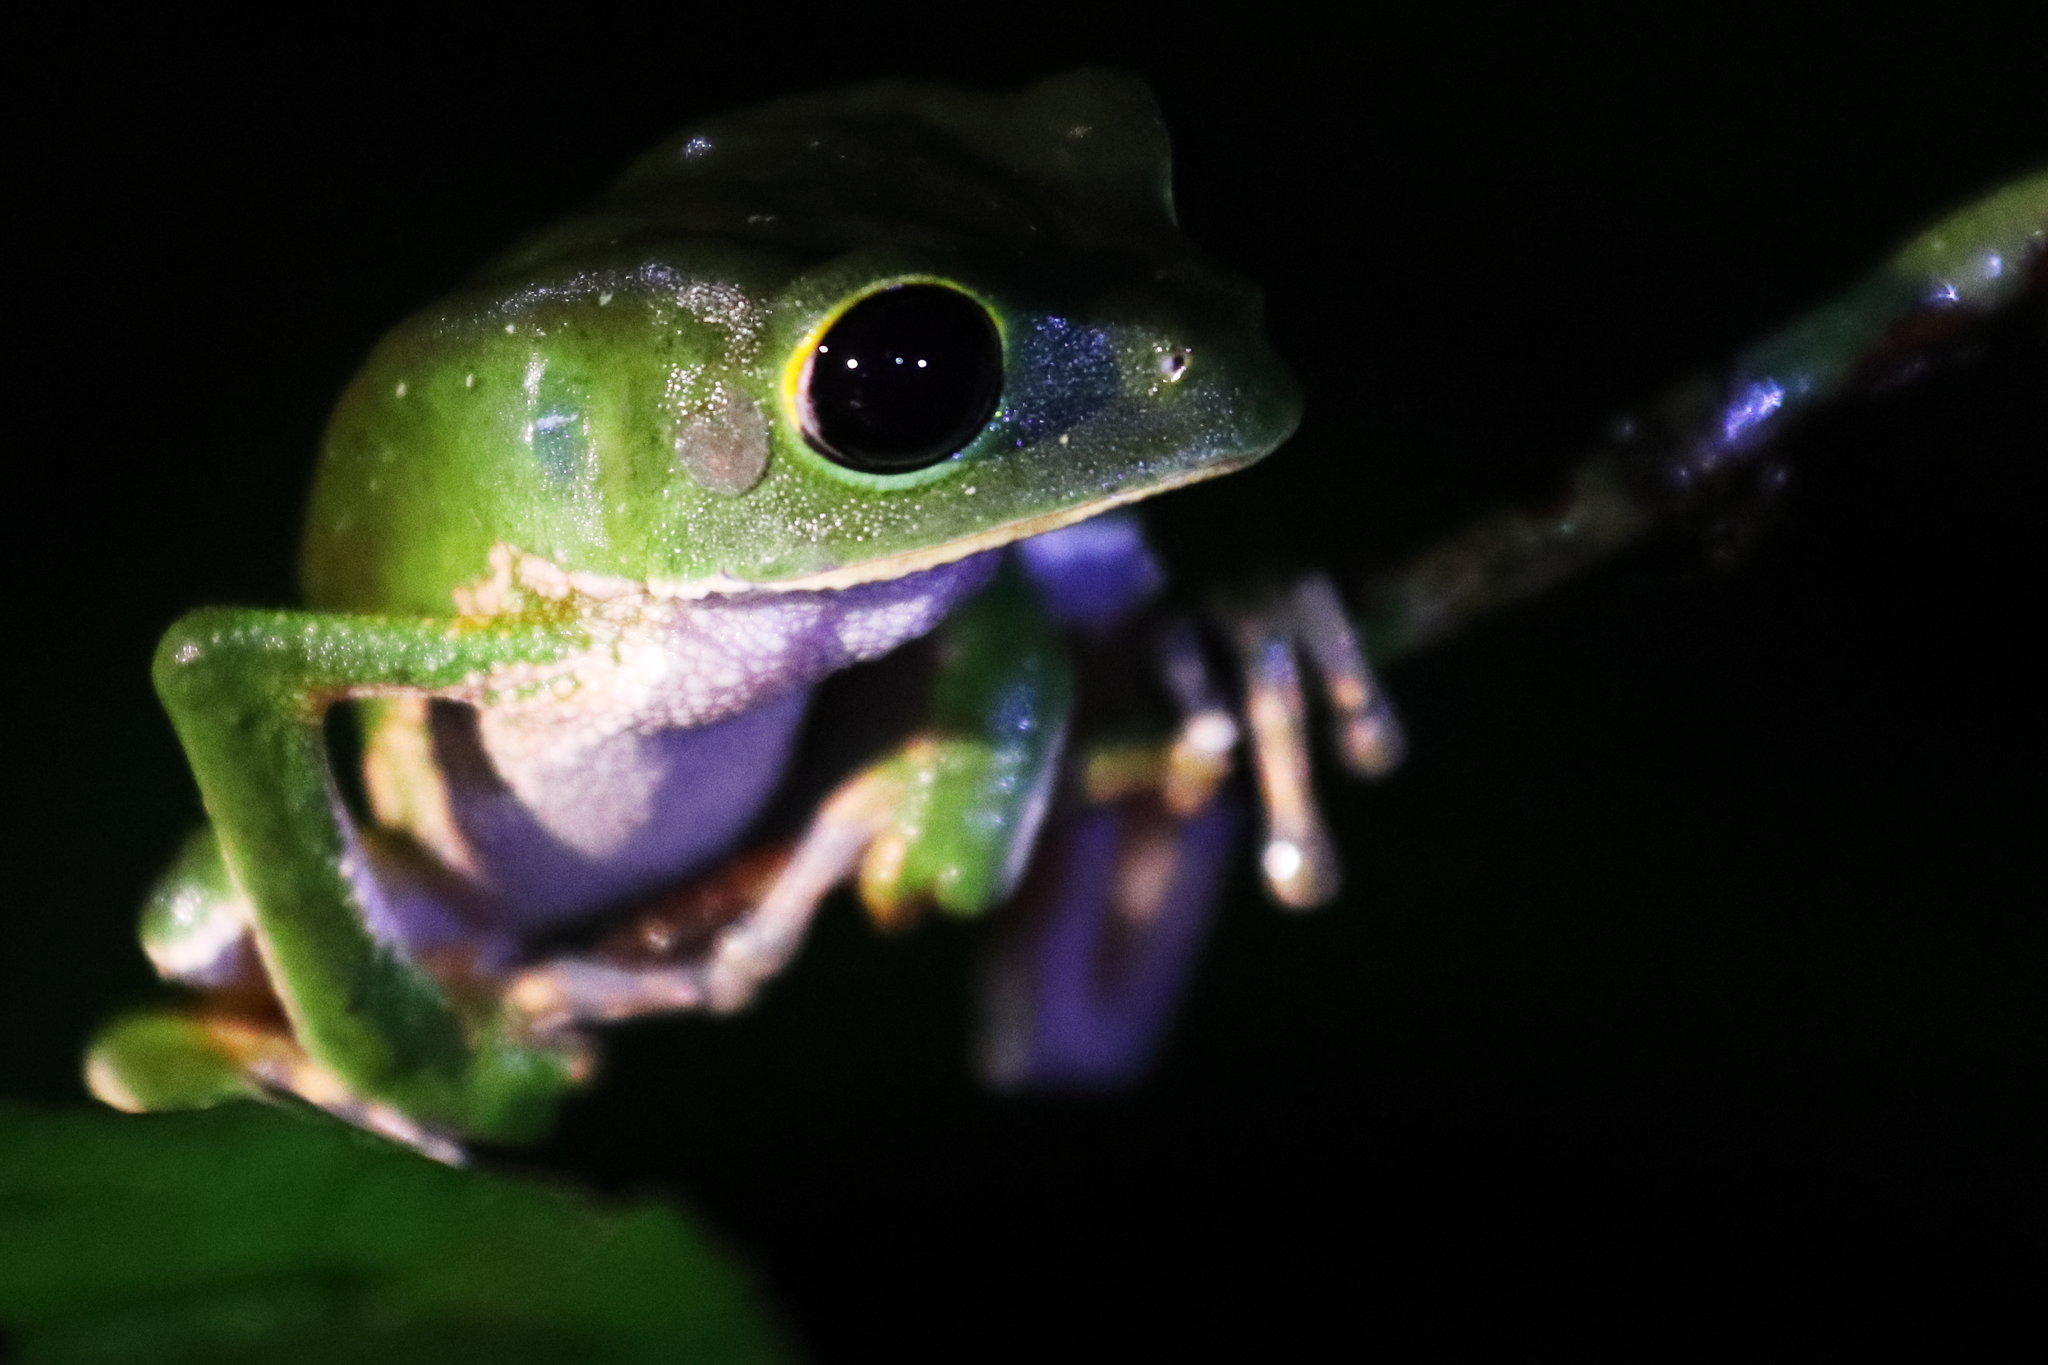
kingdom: Animalia
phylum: Chordata
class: Amphibia
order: Anura
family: Phyllomedusidae
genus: Phyllomedusa
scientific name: Phyllomedusa camba
